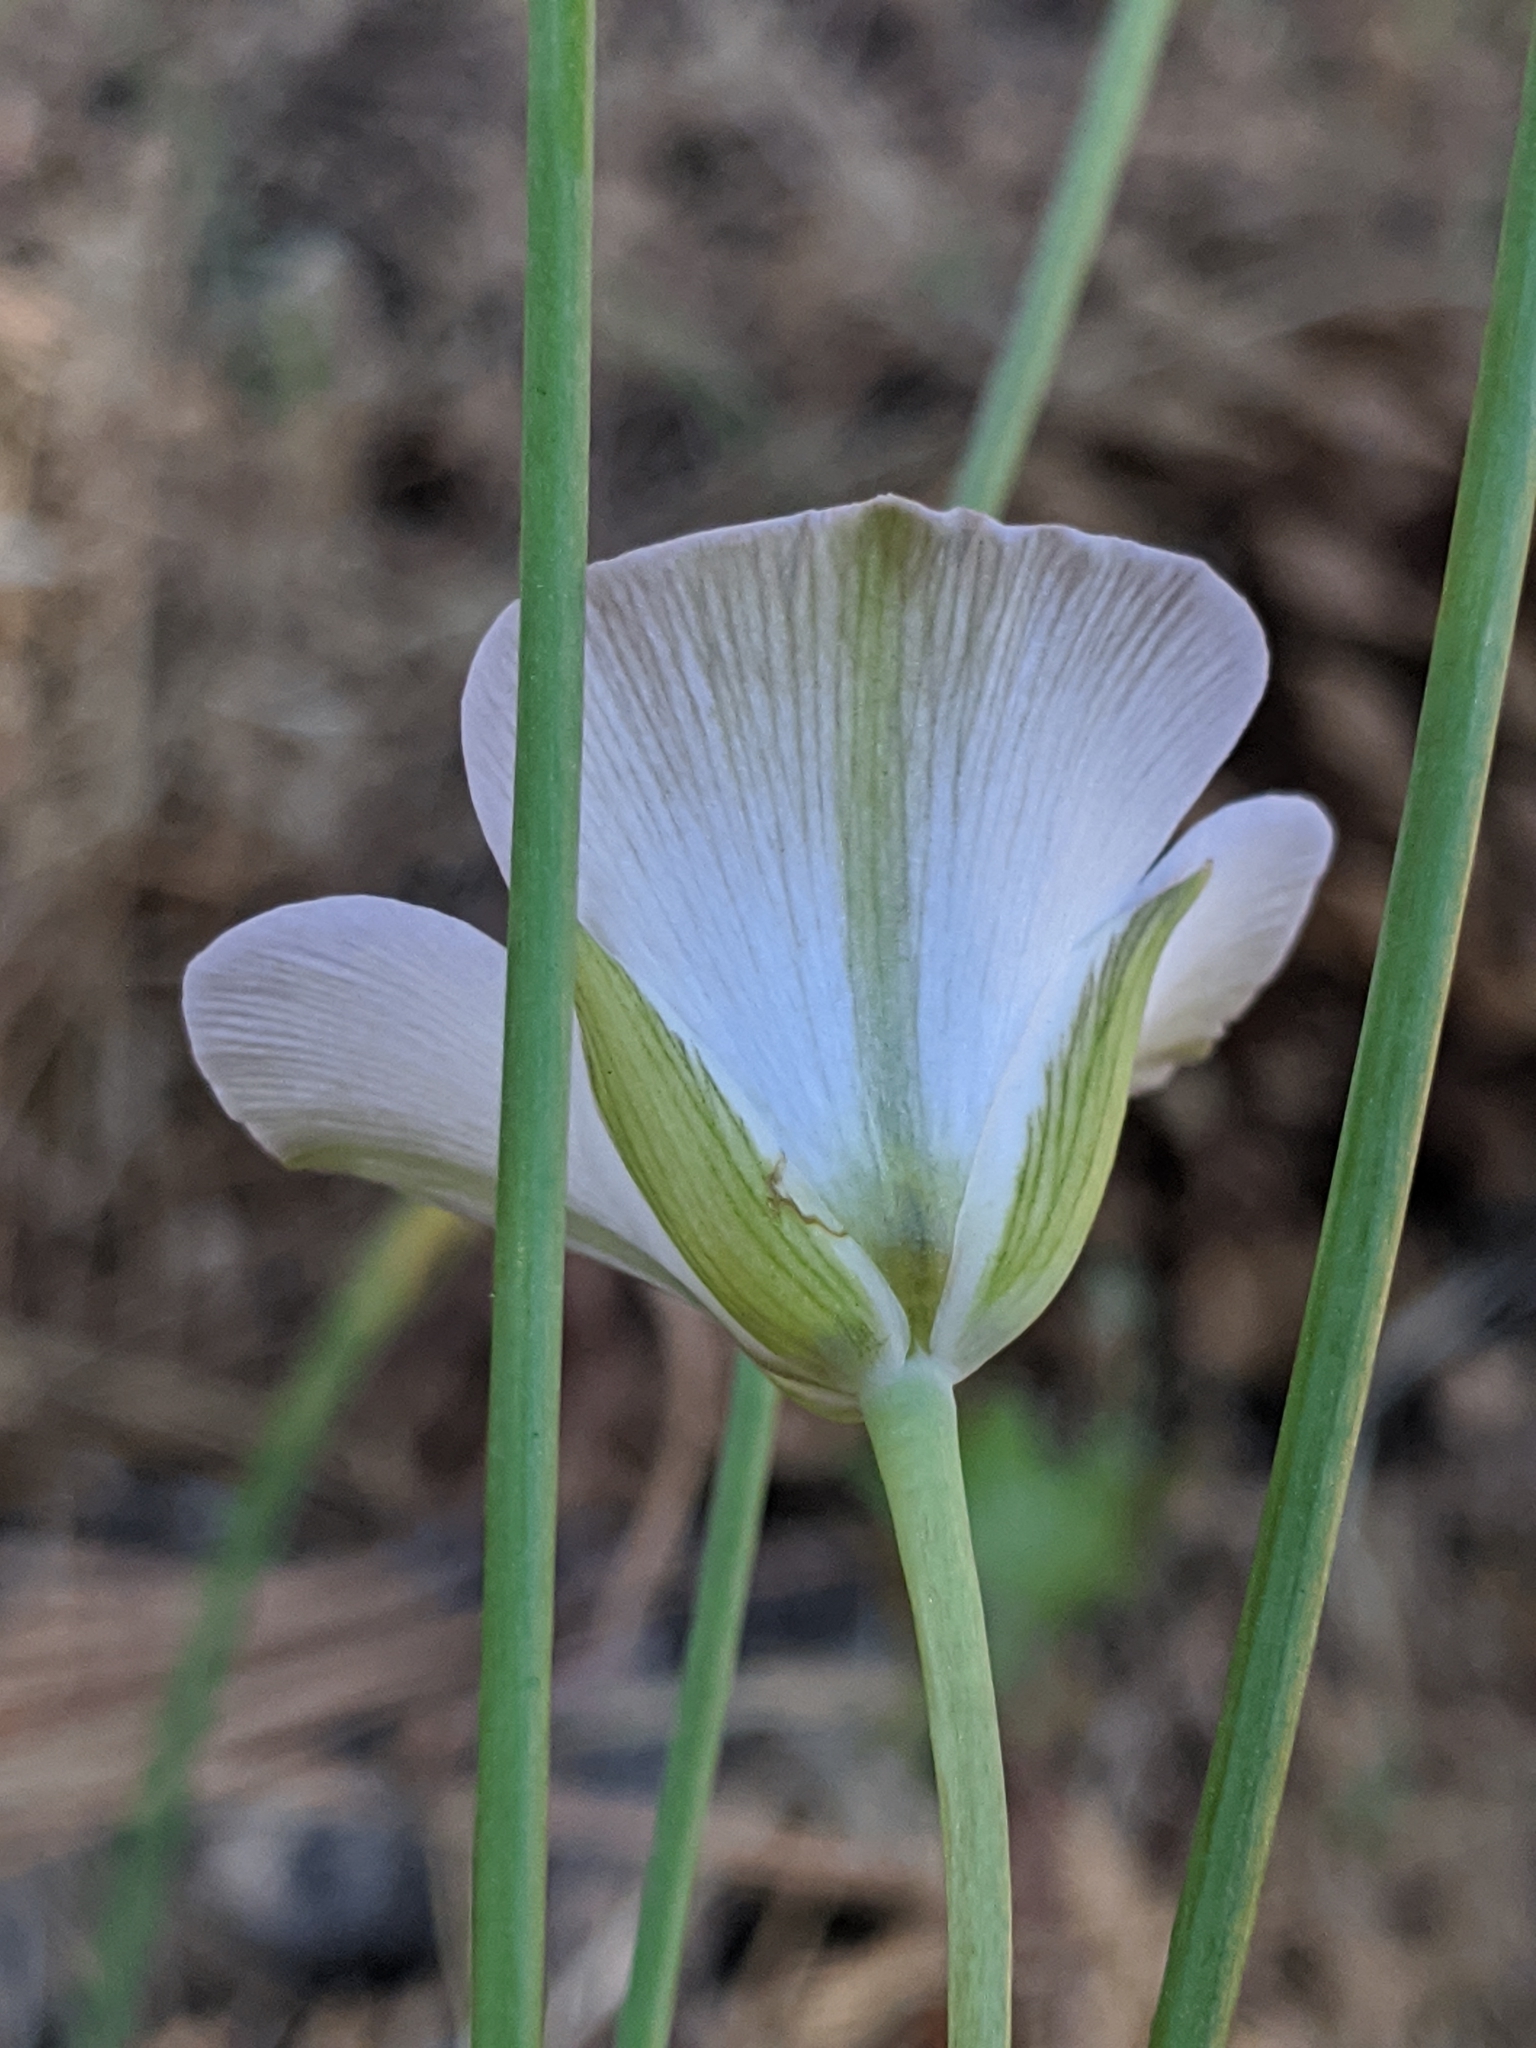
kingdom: Plantae
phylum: Tracheophyta
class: Liliopsida
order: Liliales
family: Liliaceae
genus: Calochortus
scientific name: Calochortus invenustus
